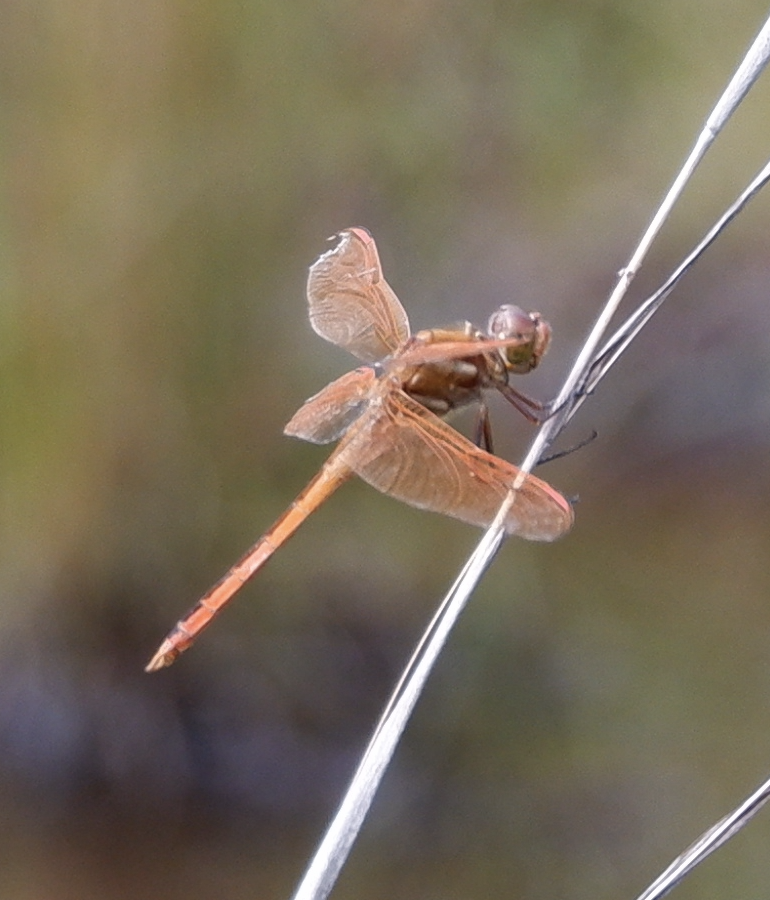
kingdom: Animalia
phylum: Arthropoda
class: Insecta
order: Odonata
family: Libellulidae
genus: Libellula
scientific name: Libellula auripennis
